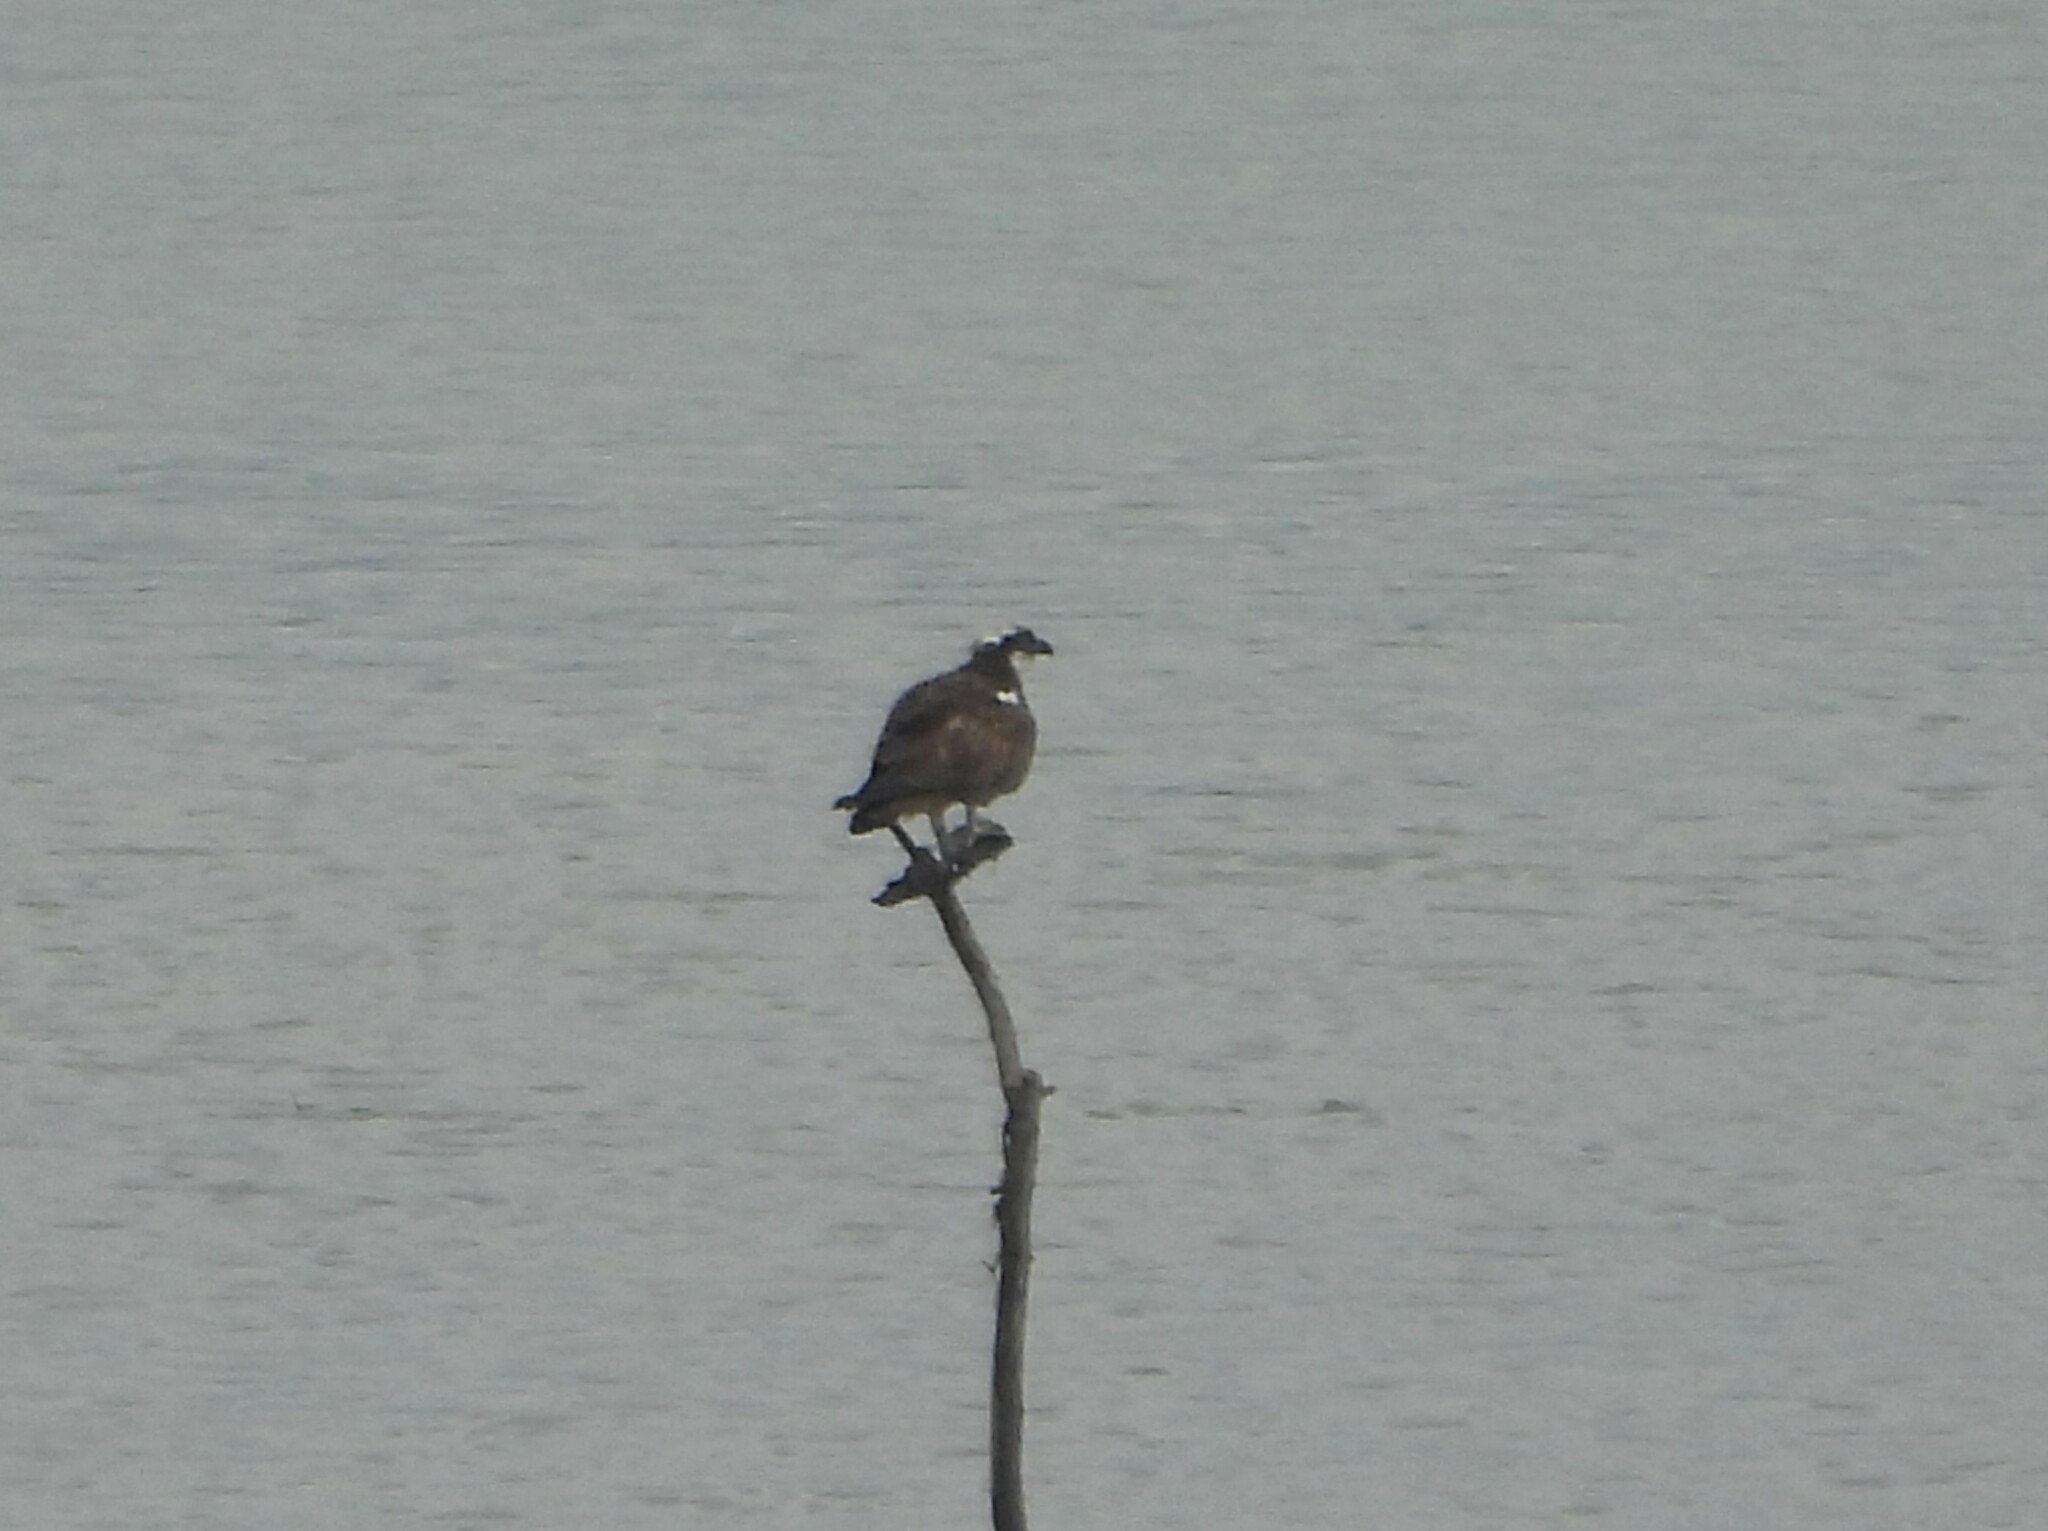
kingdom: Animalia
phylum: Chordata
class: Aves
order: Accipitriformes
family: Pandionidae
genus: Pandion
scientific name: Pandion haliaetus
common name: Osprey
